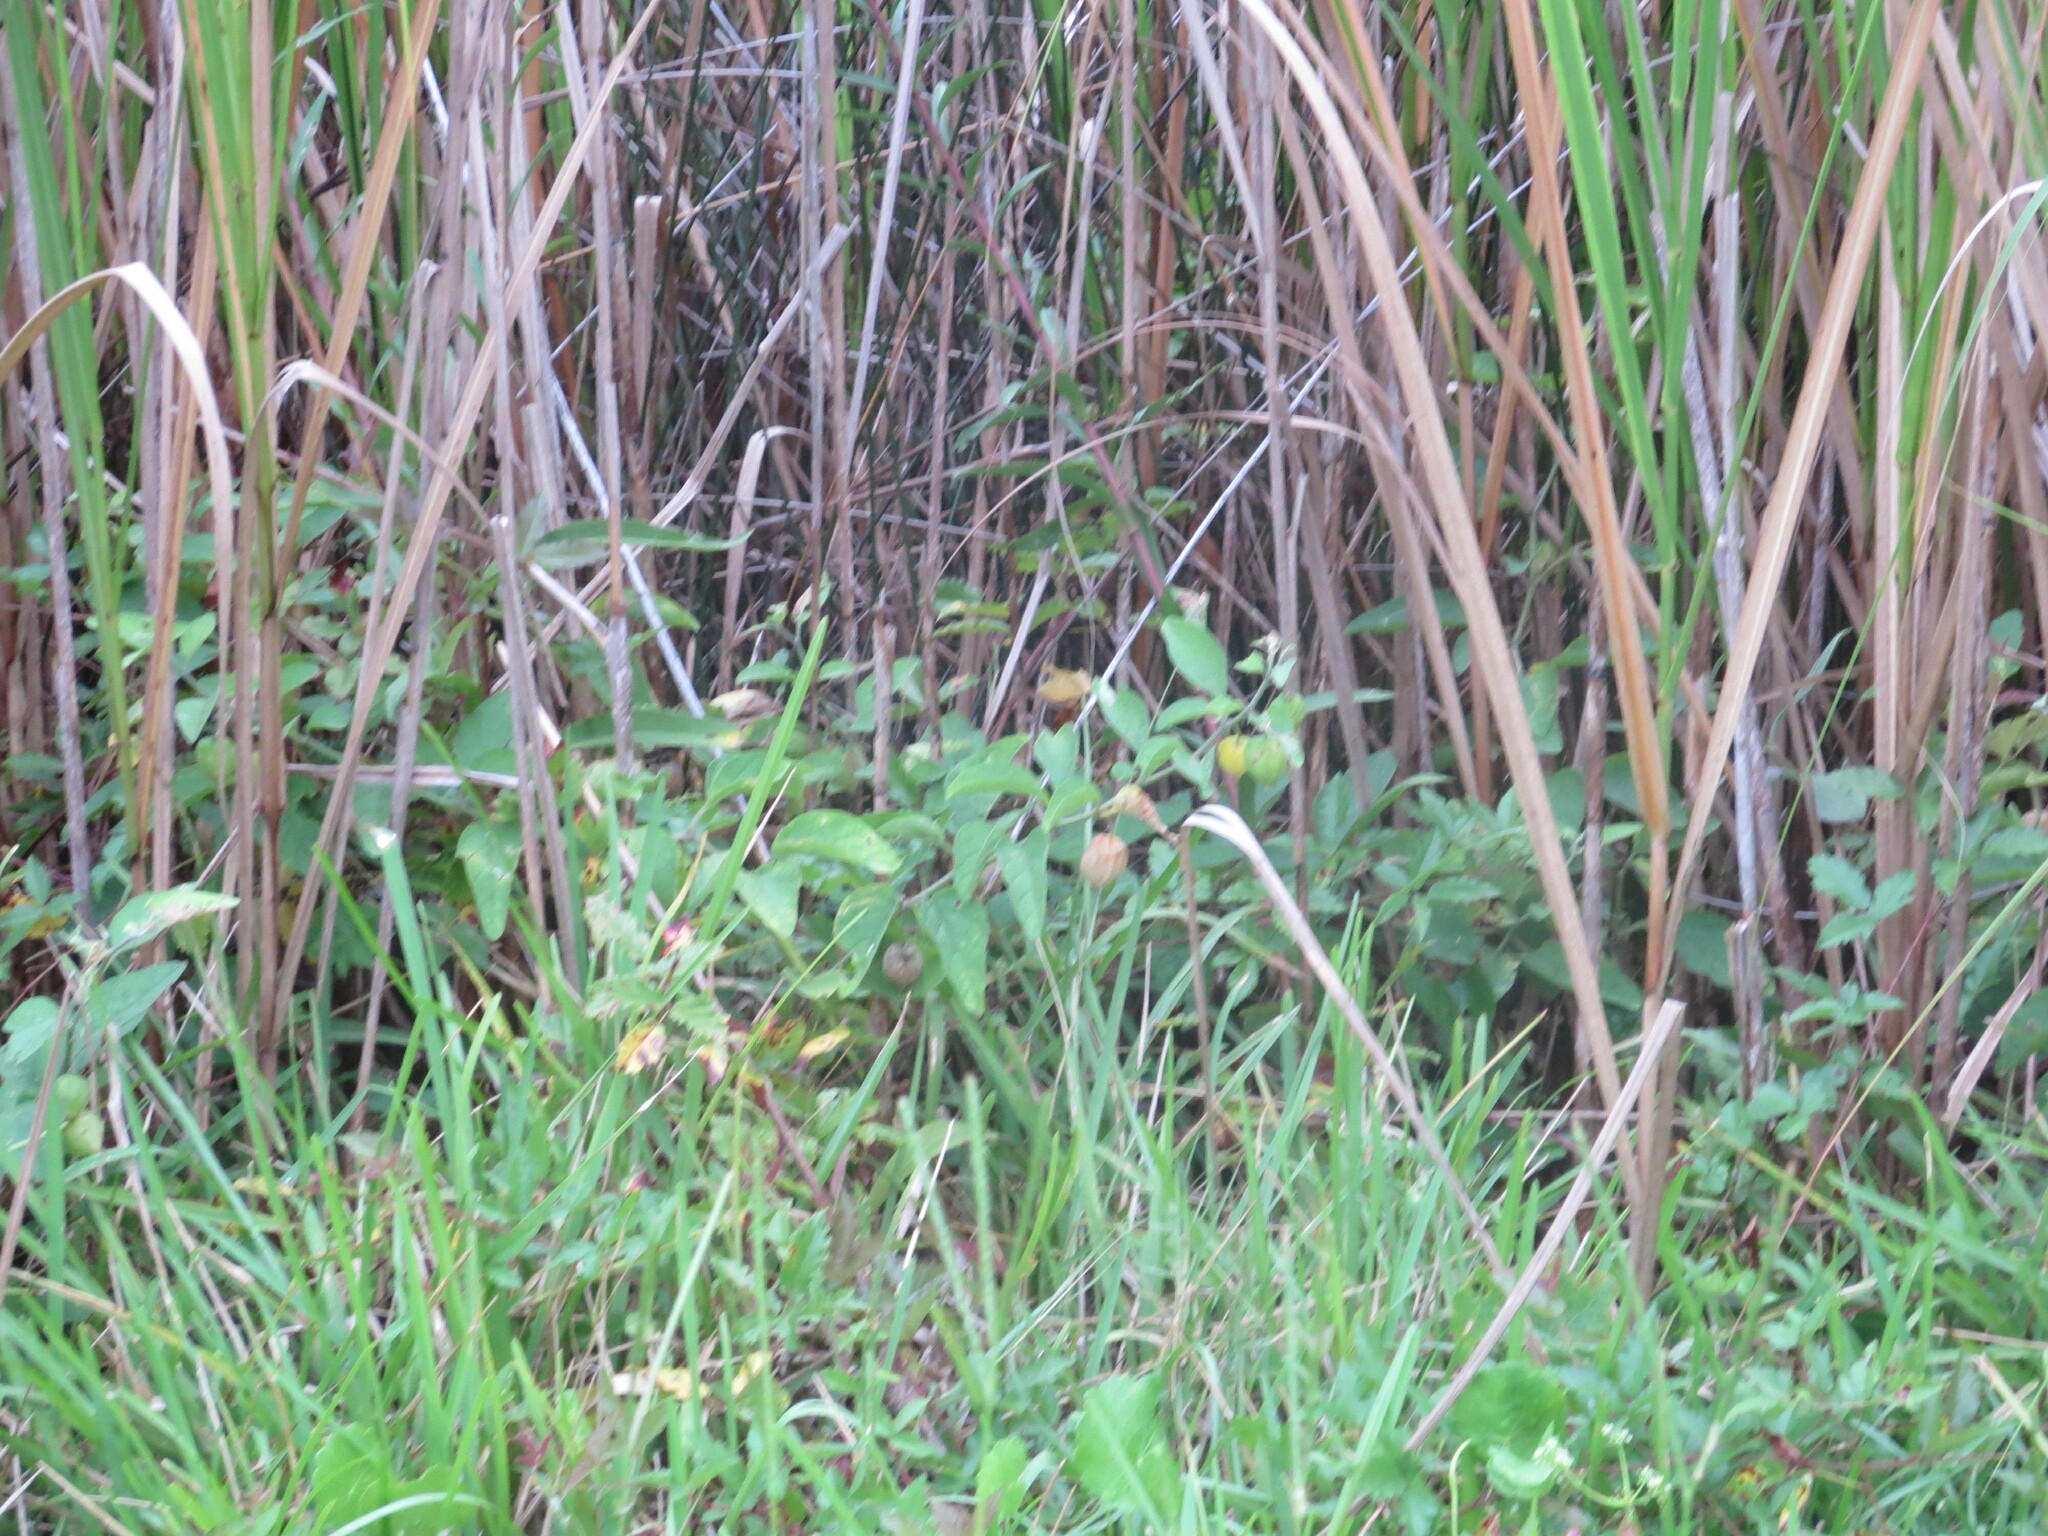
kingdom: Plantae
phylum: Tracheophyta
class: Magnoliopsida
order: Solanales
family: Solanaceae
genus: Physalis
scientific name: Physalis walteri
